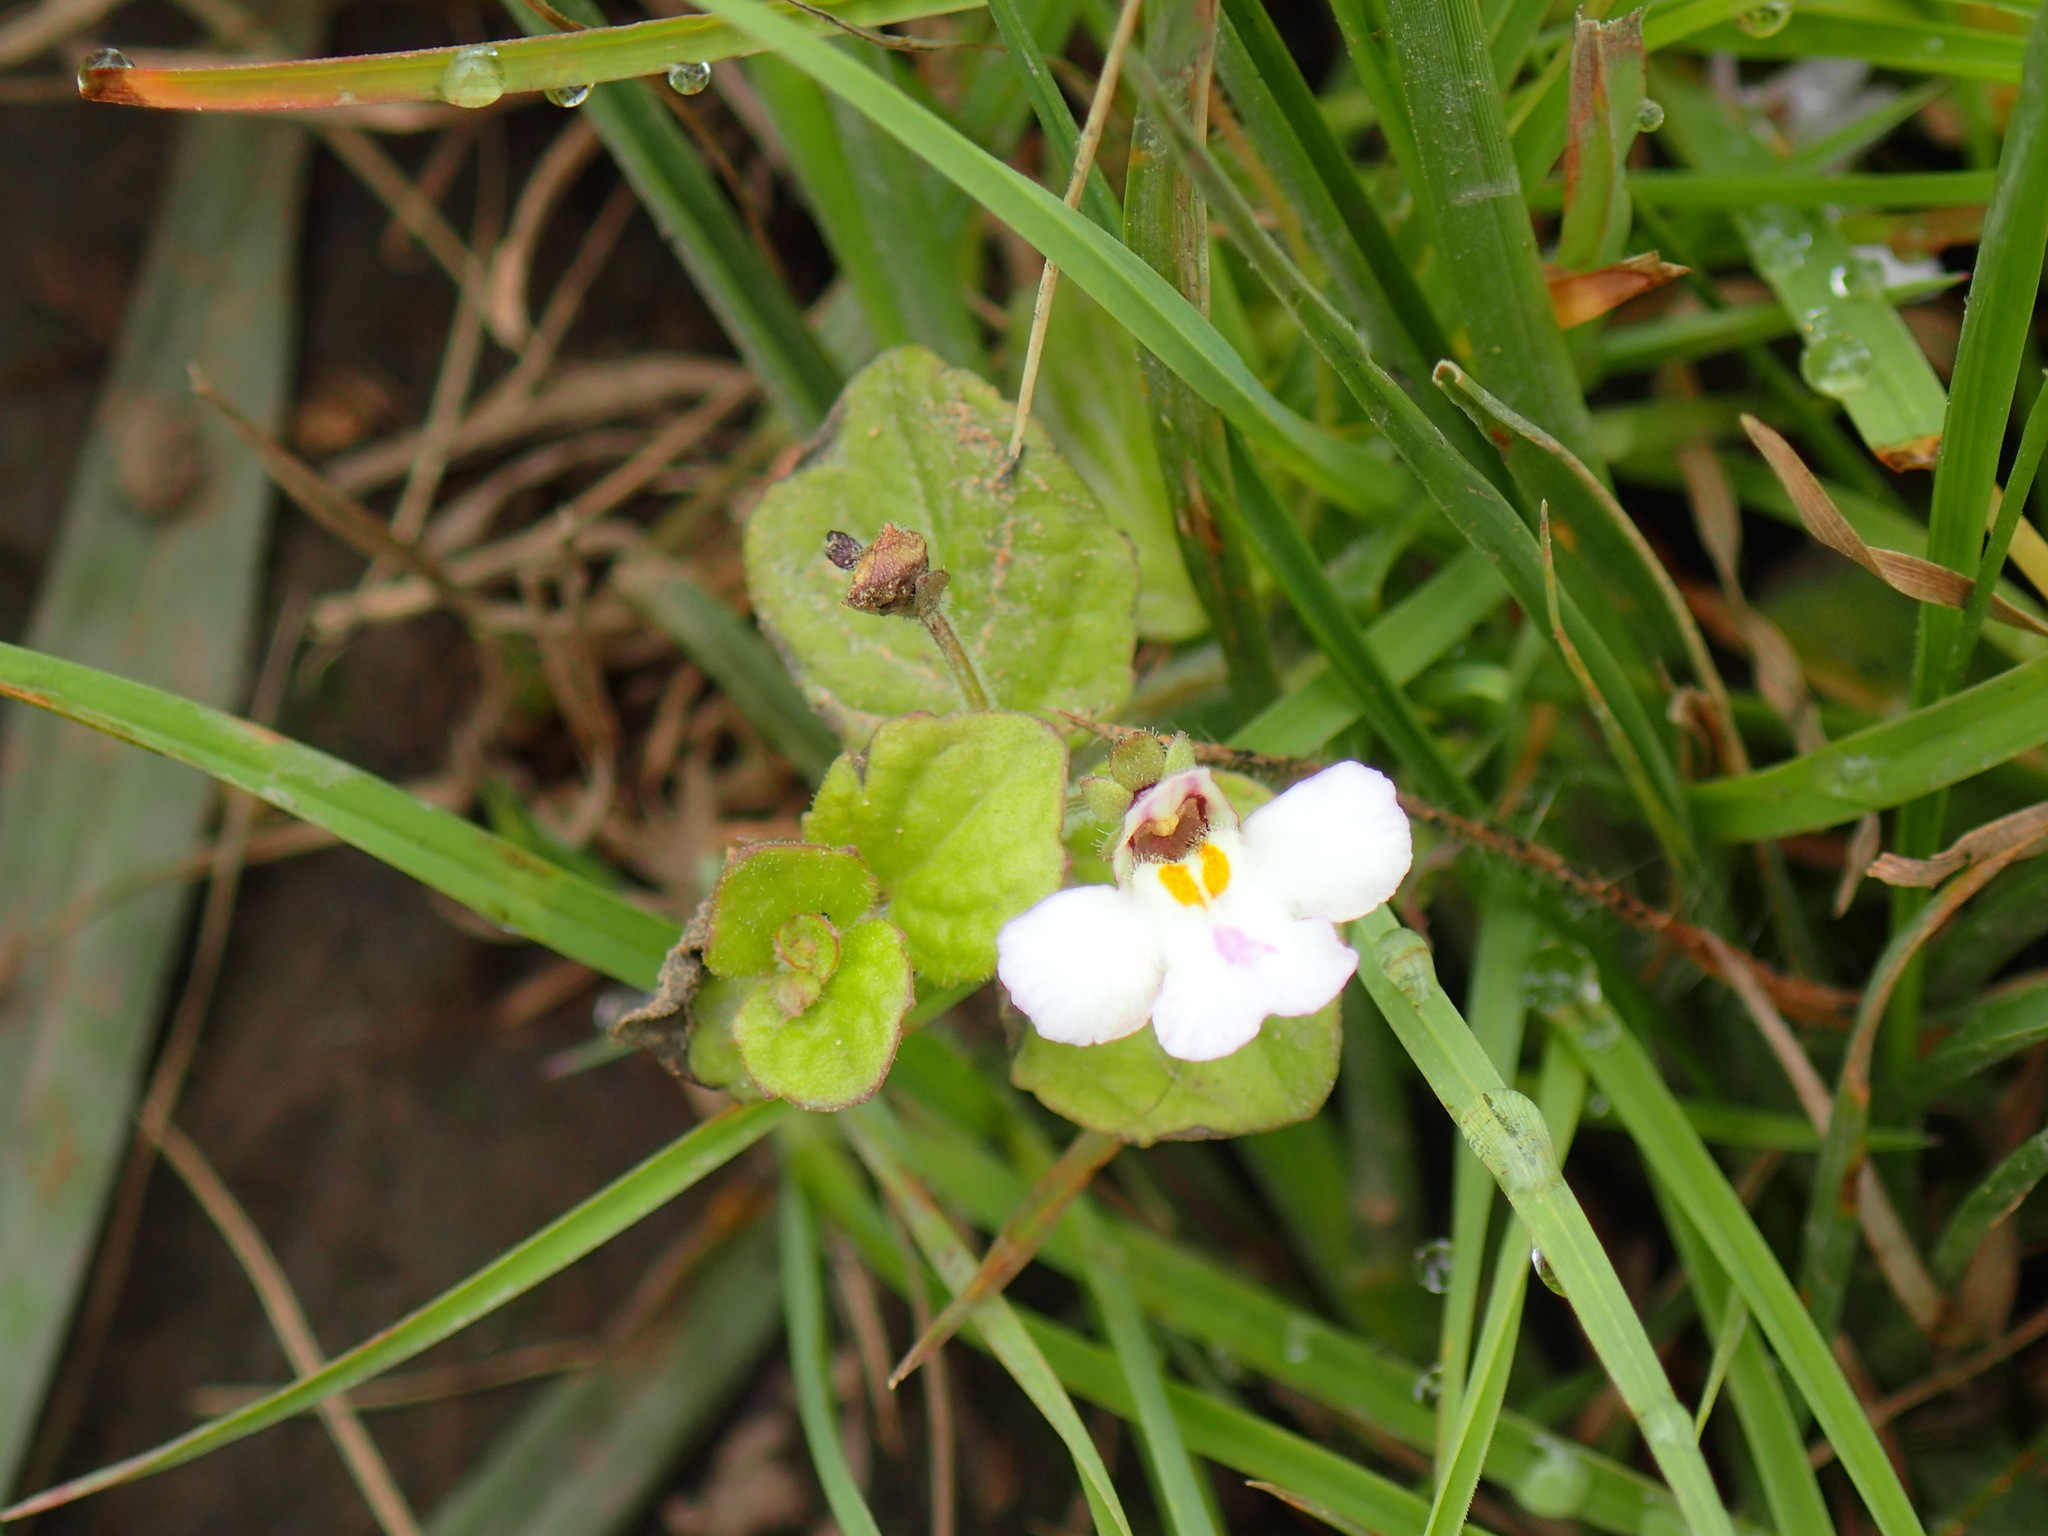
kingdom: Plantae
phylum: Tracheophyta
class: Magnoliopsida
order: Lamiales
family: Scrophulariaceae
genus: Diclis
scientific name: Diclis reptans
